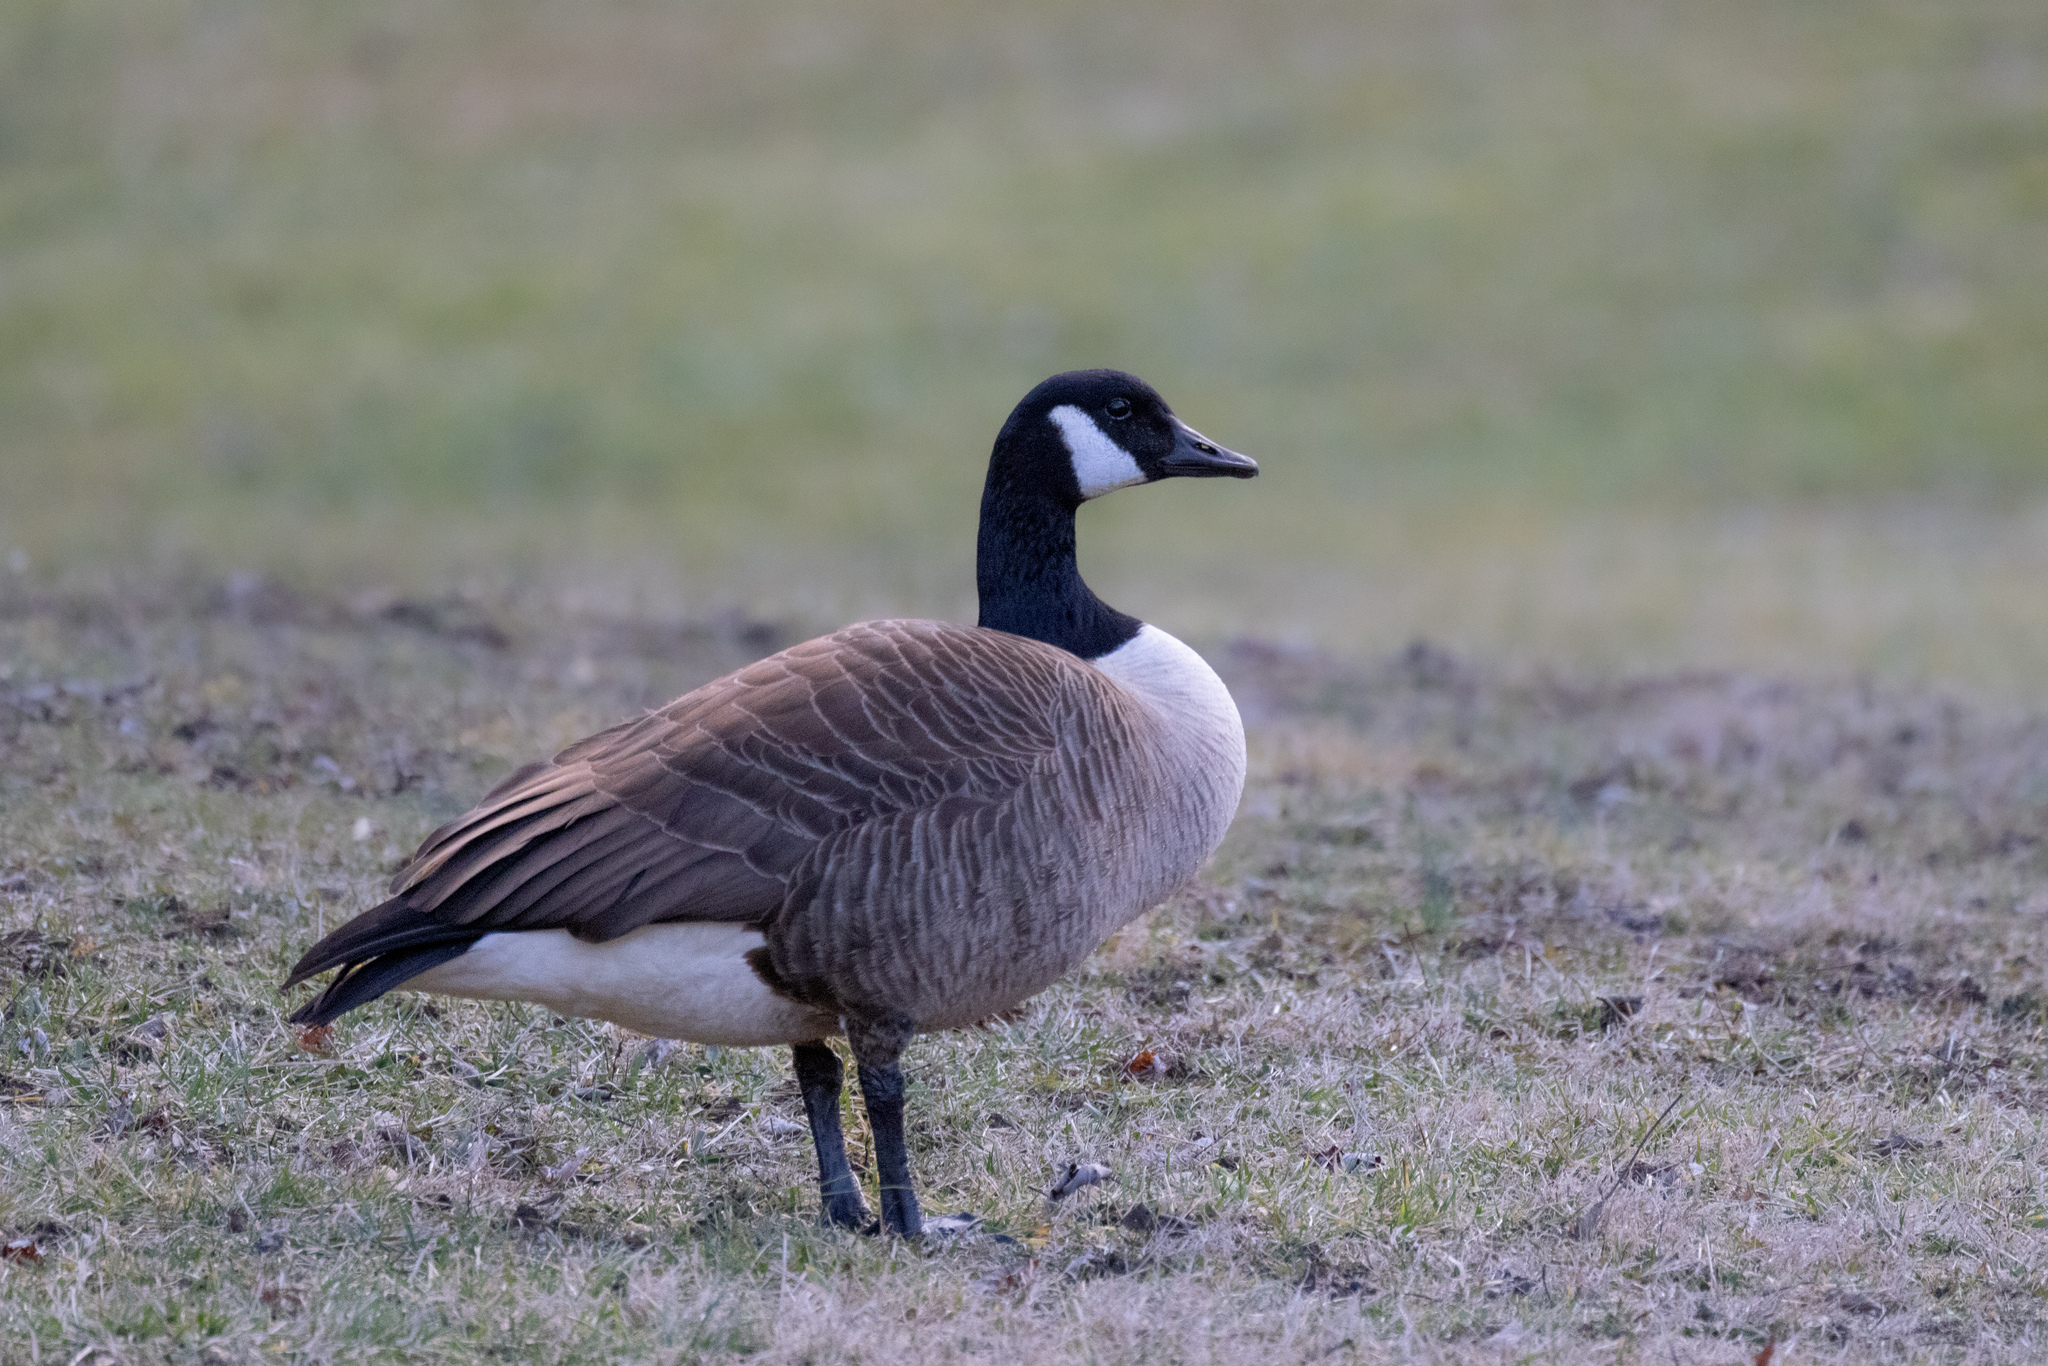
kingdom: Animalia
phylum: Chordata
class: Aves
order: Anseriformes
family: Anatidae
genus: Branta
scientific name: Branta canadensis
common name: Canada goose
